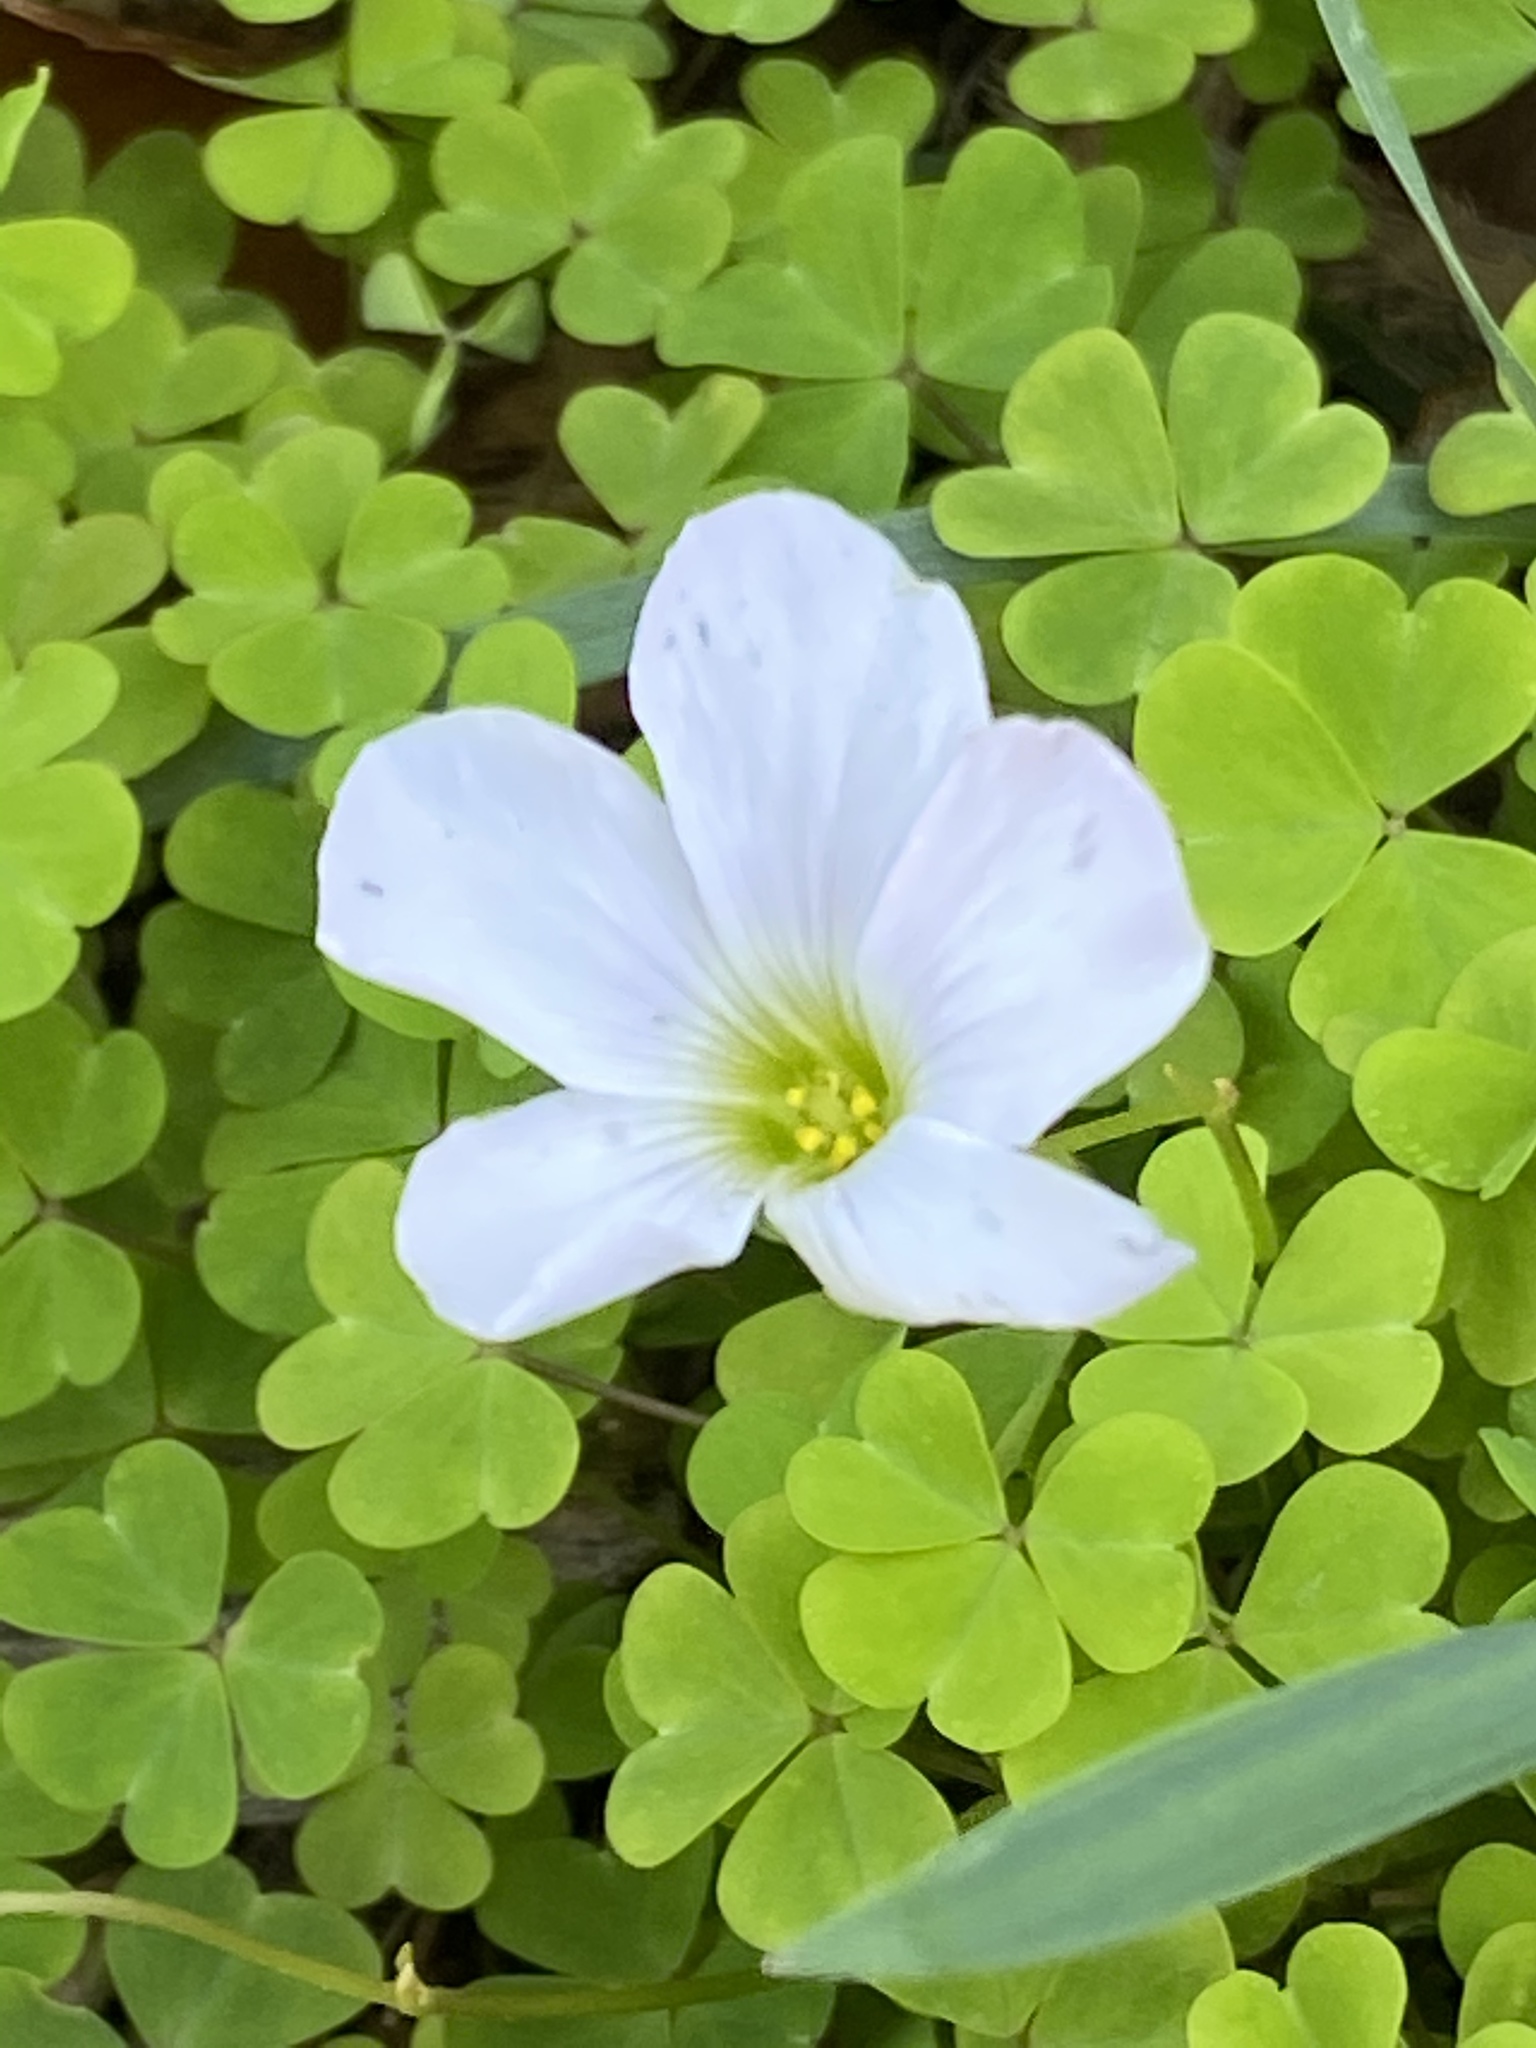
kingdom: Plantae
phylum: Tracheophyta
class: Magnoliopsida
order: Oxalidales
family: Oxalidaceae
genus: Oxalis
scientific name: Oxalis incarnata
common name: Pale pink-sorrel
